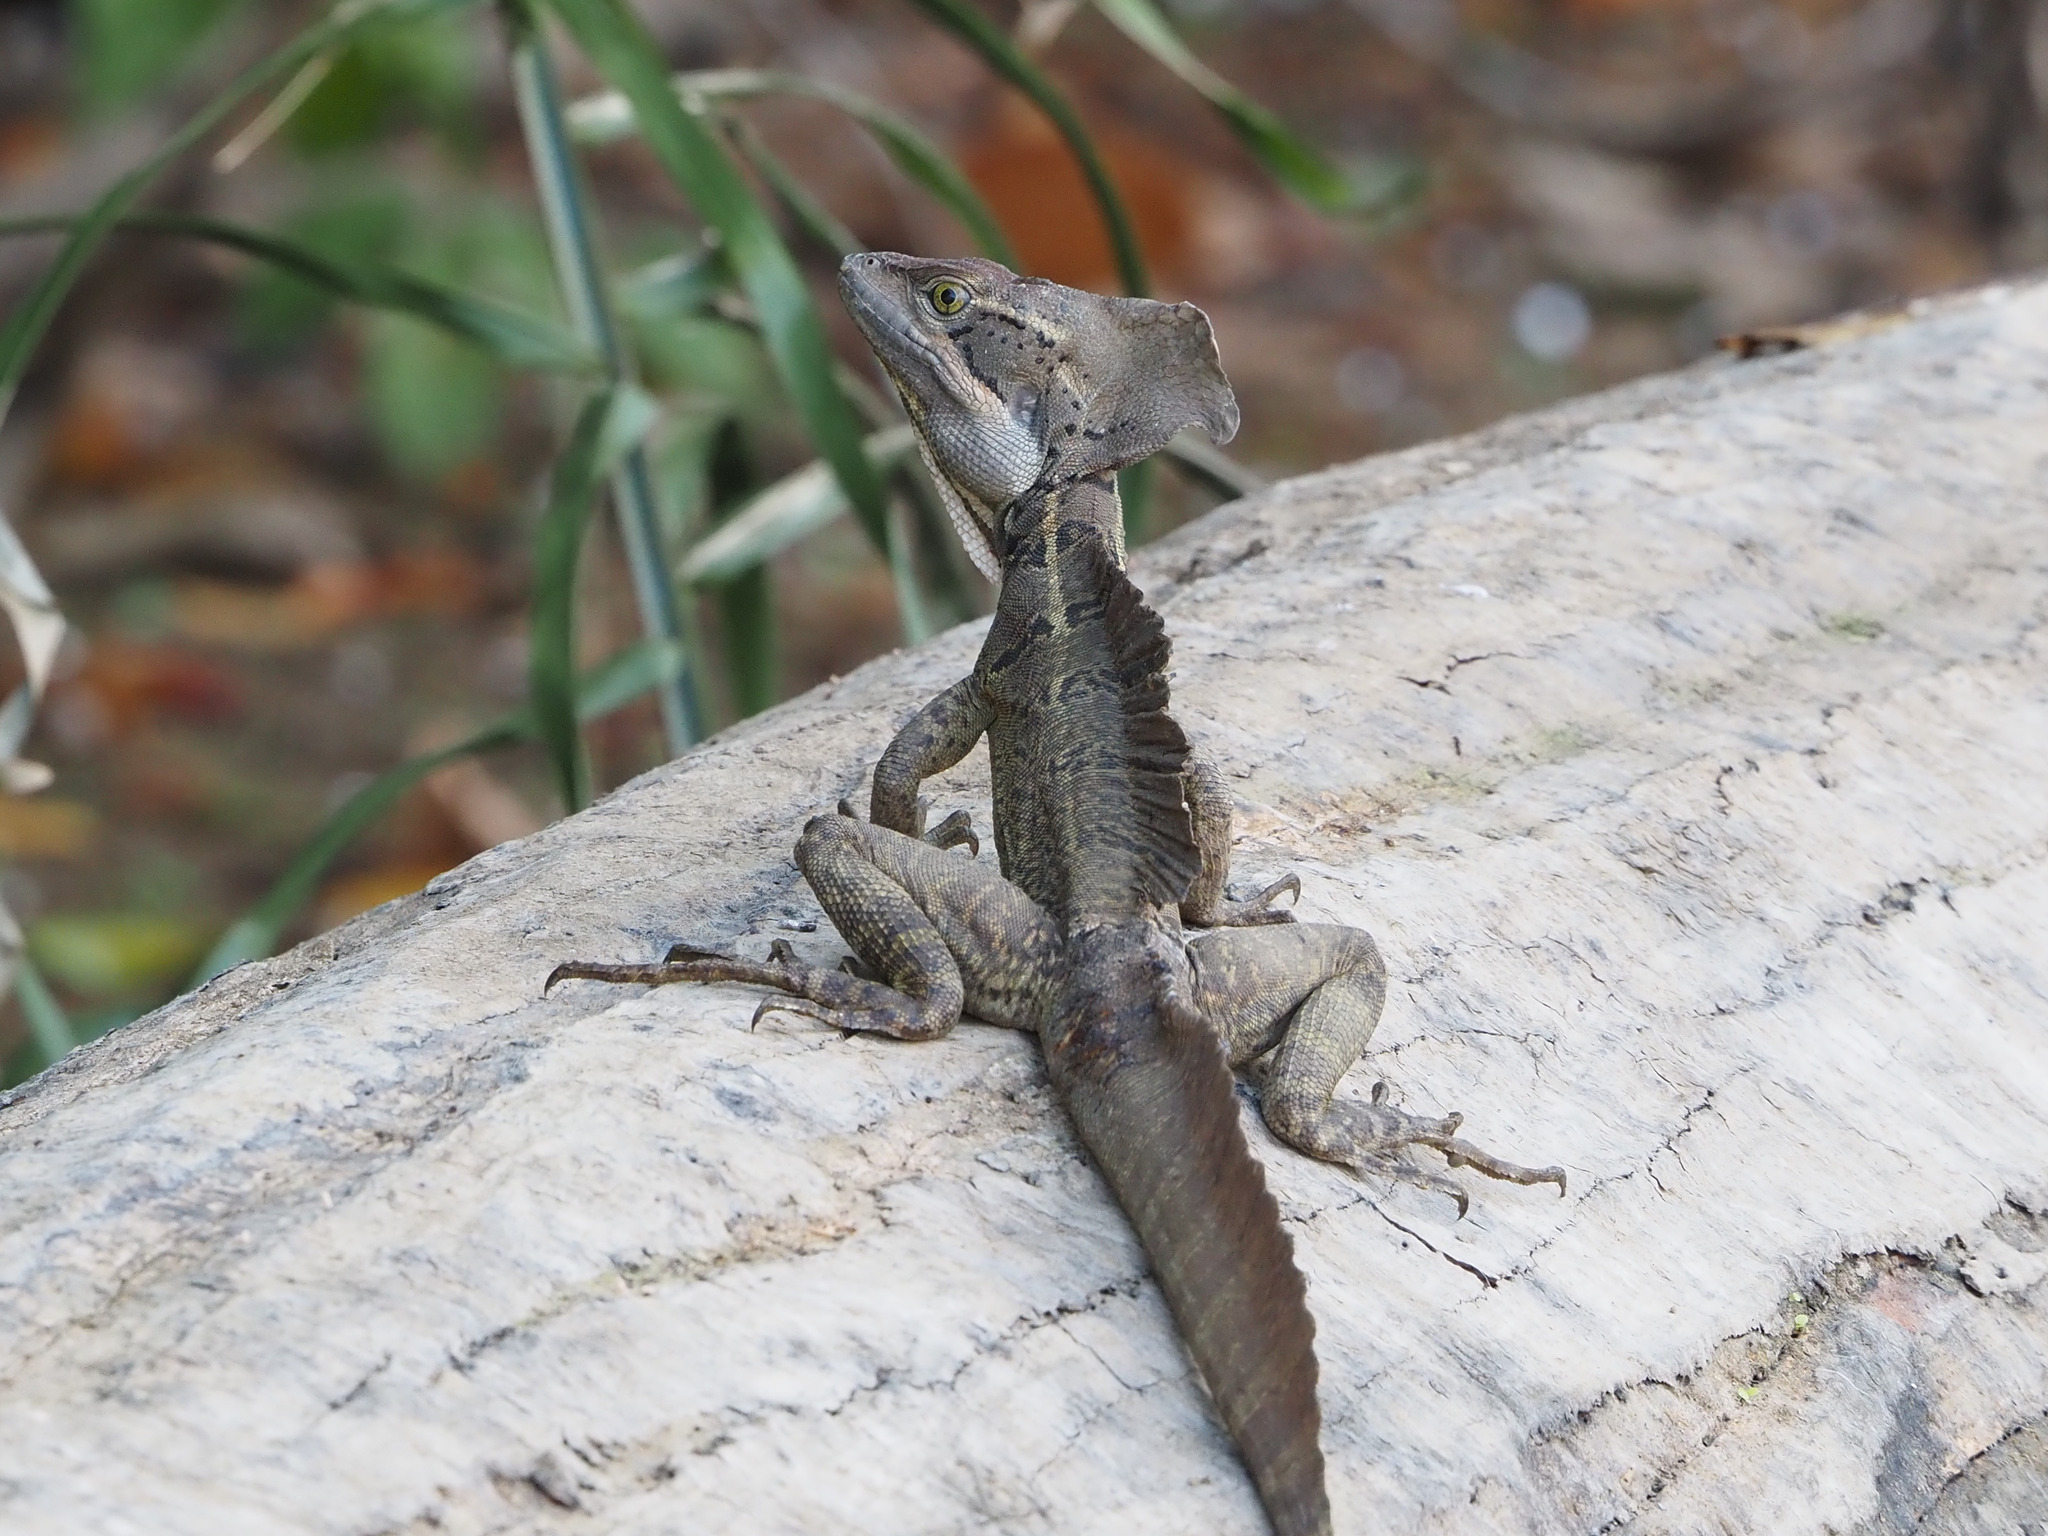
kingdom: Animalia
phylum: Chordata
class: Squamata
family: Corytophanidae
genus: Basiliscus
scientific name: Basiliscus basiliscus
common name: Common basilisk
